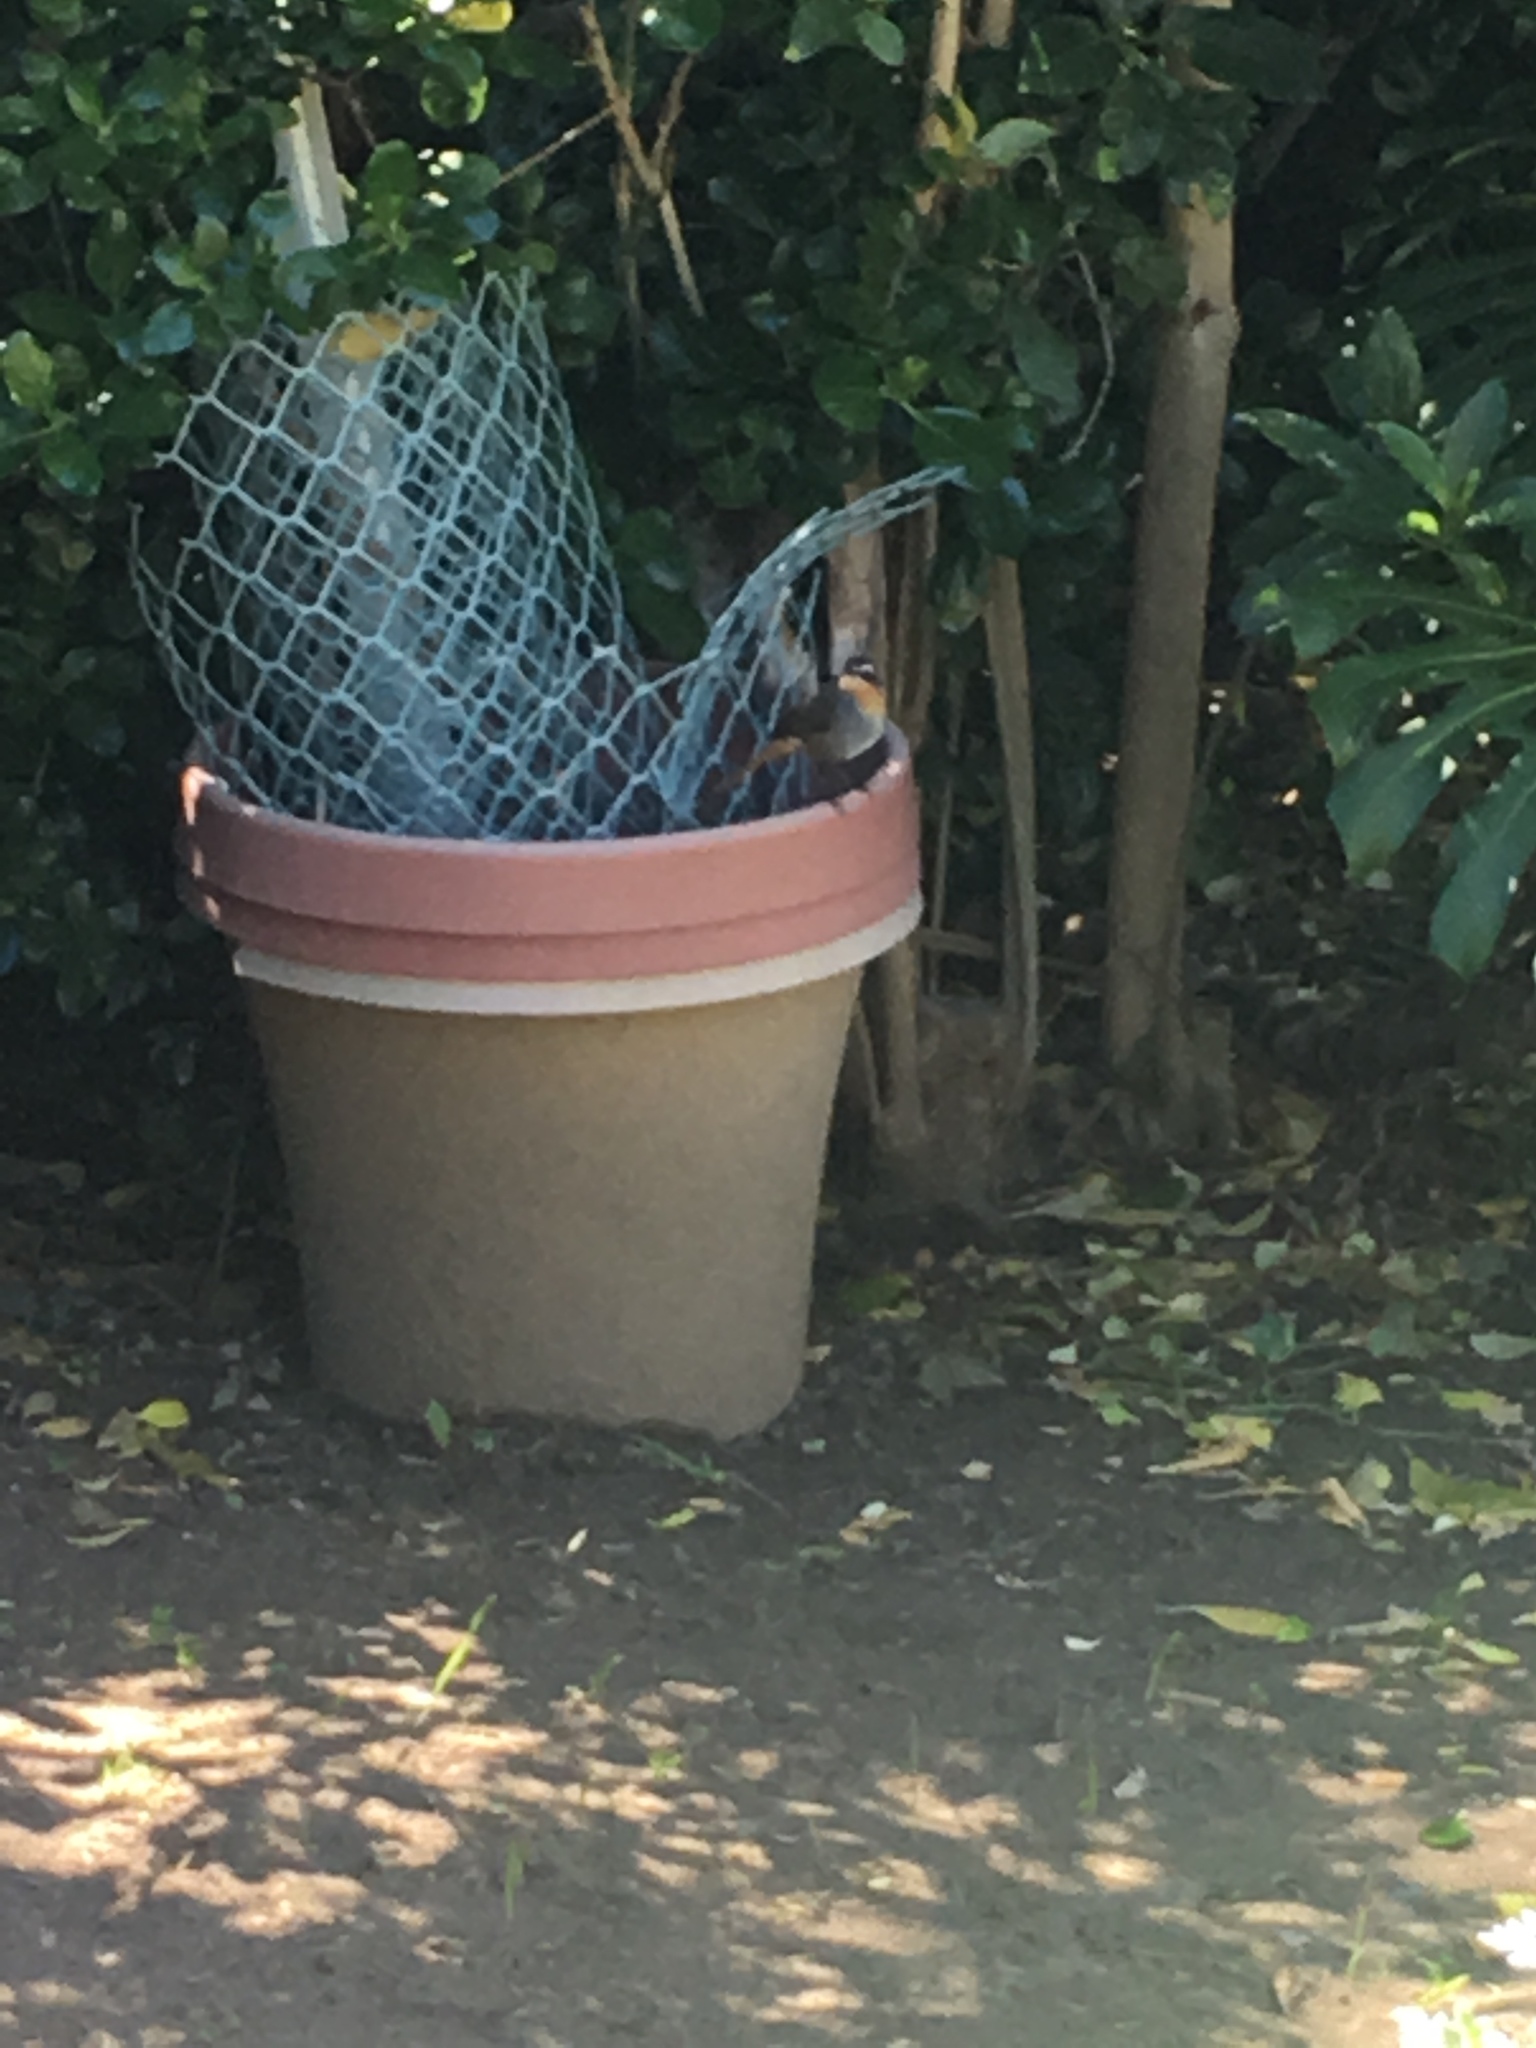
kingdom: Animalia
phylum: Chordata
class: Aves
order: Passeriformes
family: Muscicapidae
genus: Cossypha
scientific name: Cossypha caffra
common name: Cape robin-chat
